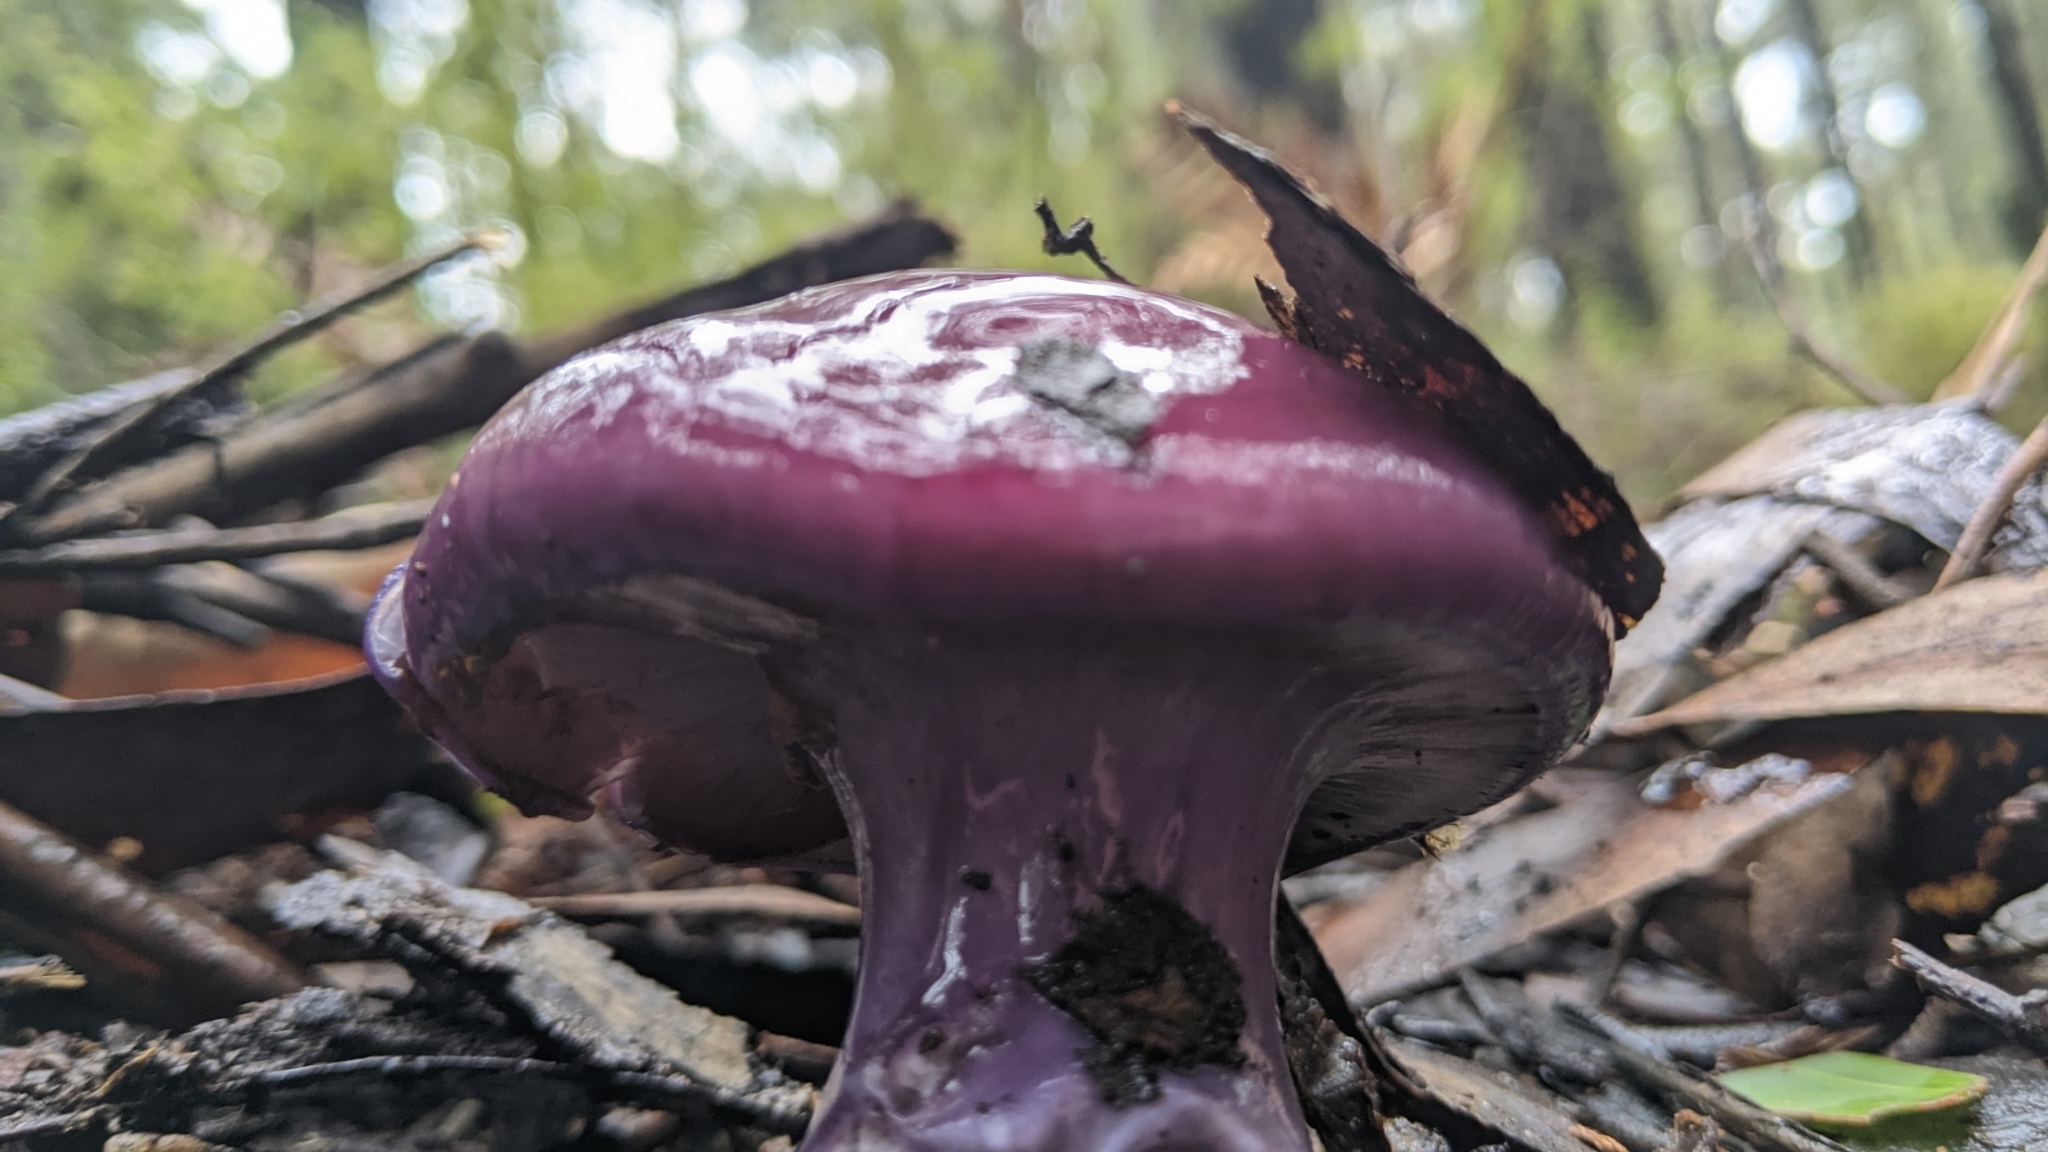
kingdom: Fungi
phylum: Basidiomycota
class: Agaricomycetes
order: Agaricales
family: Cortinariaceae
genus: Cortinarius
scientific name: Cortinarius archeri
